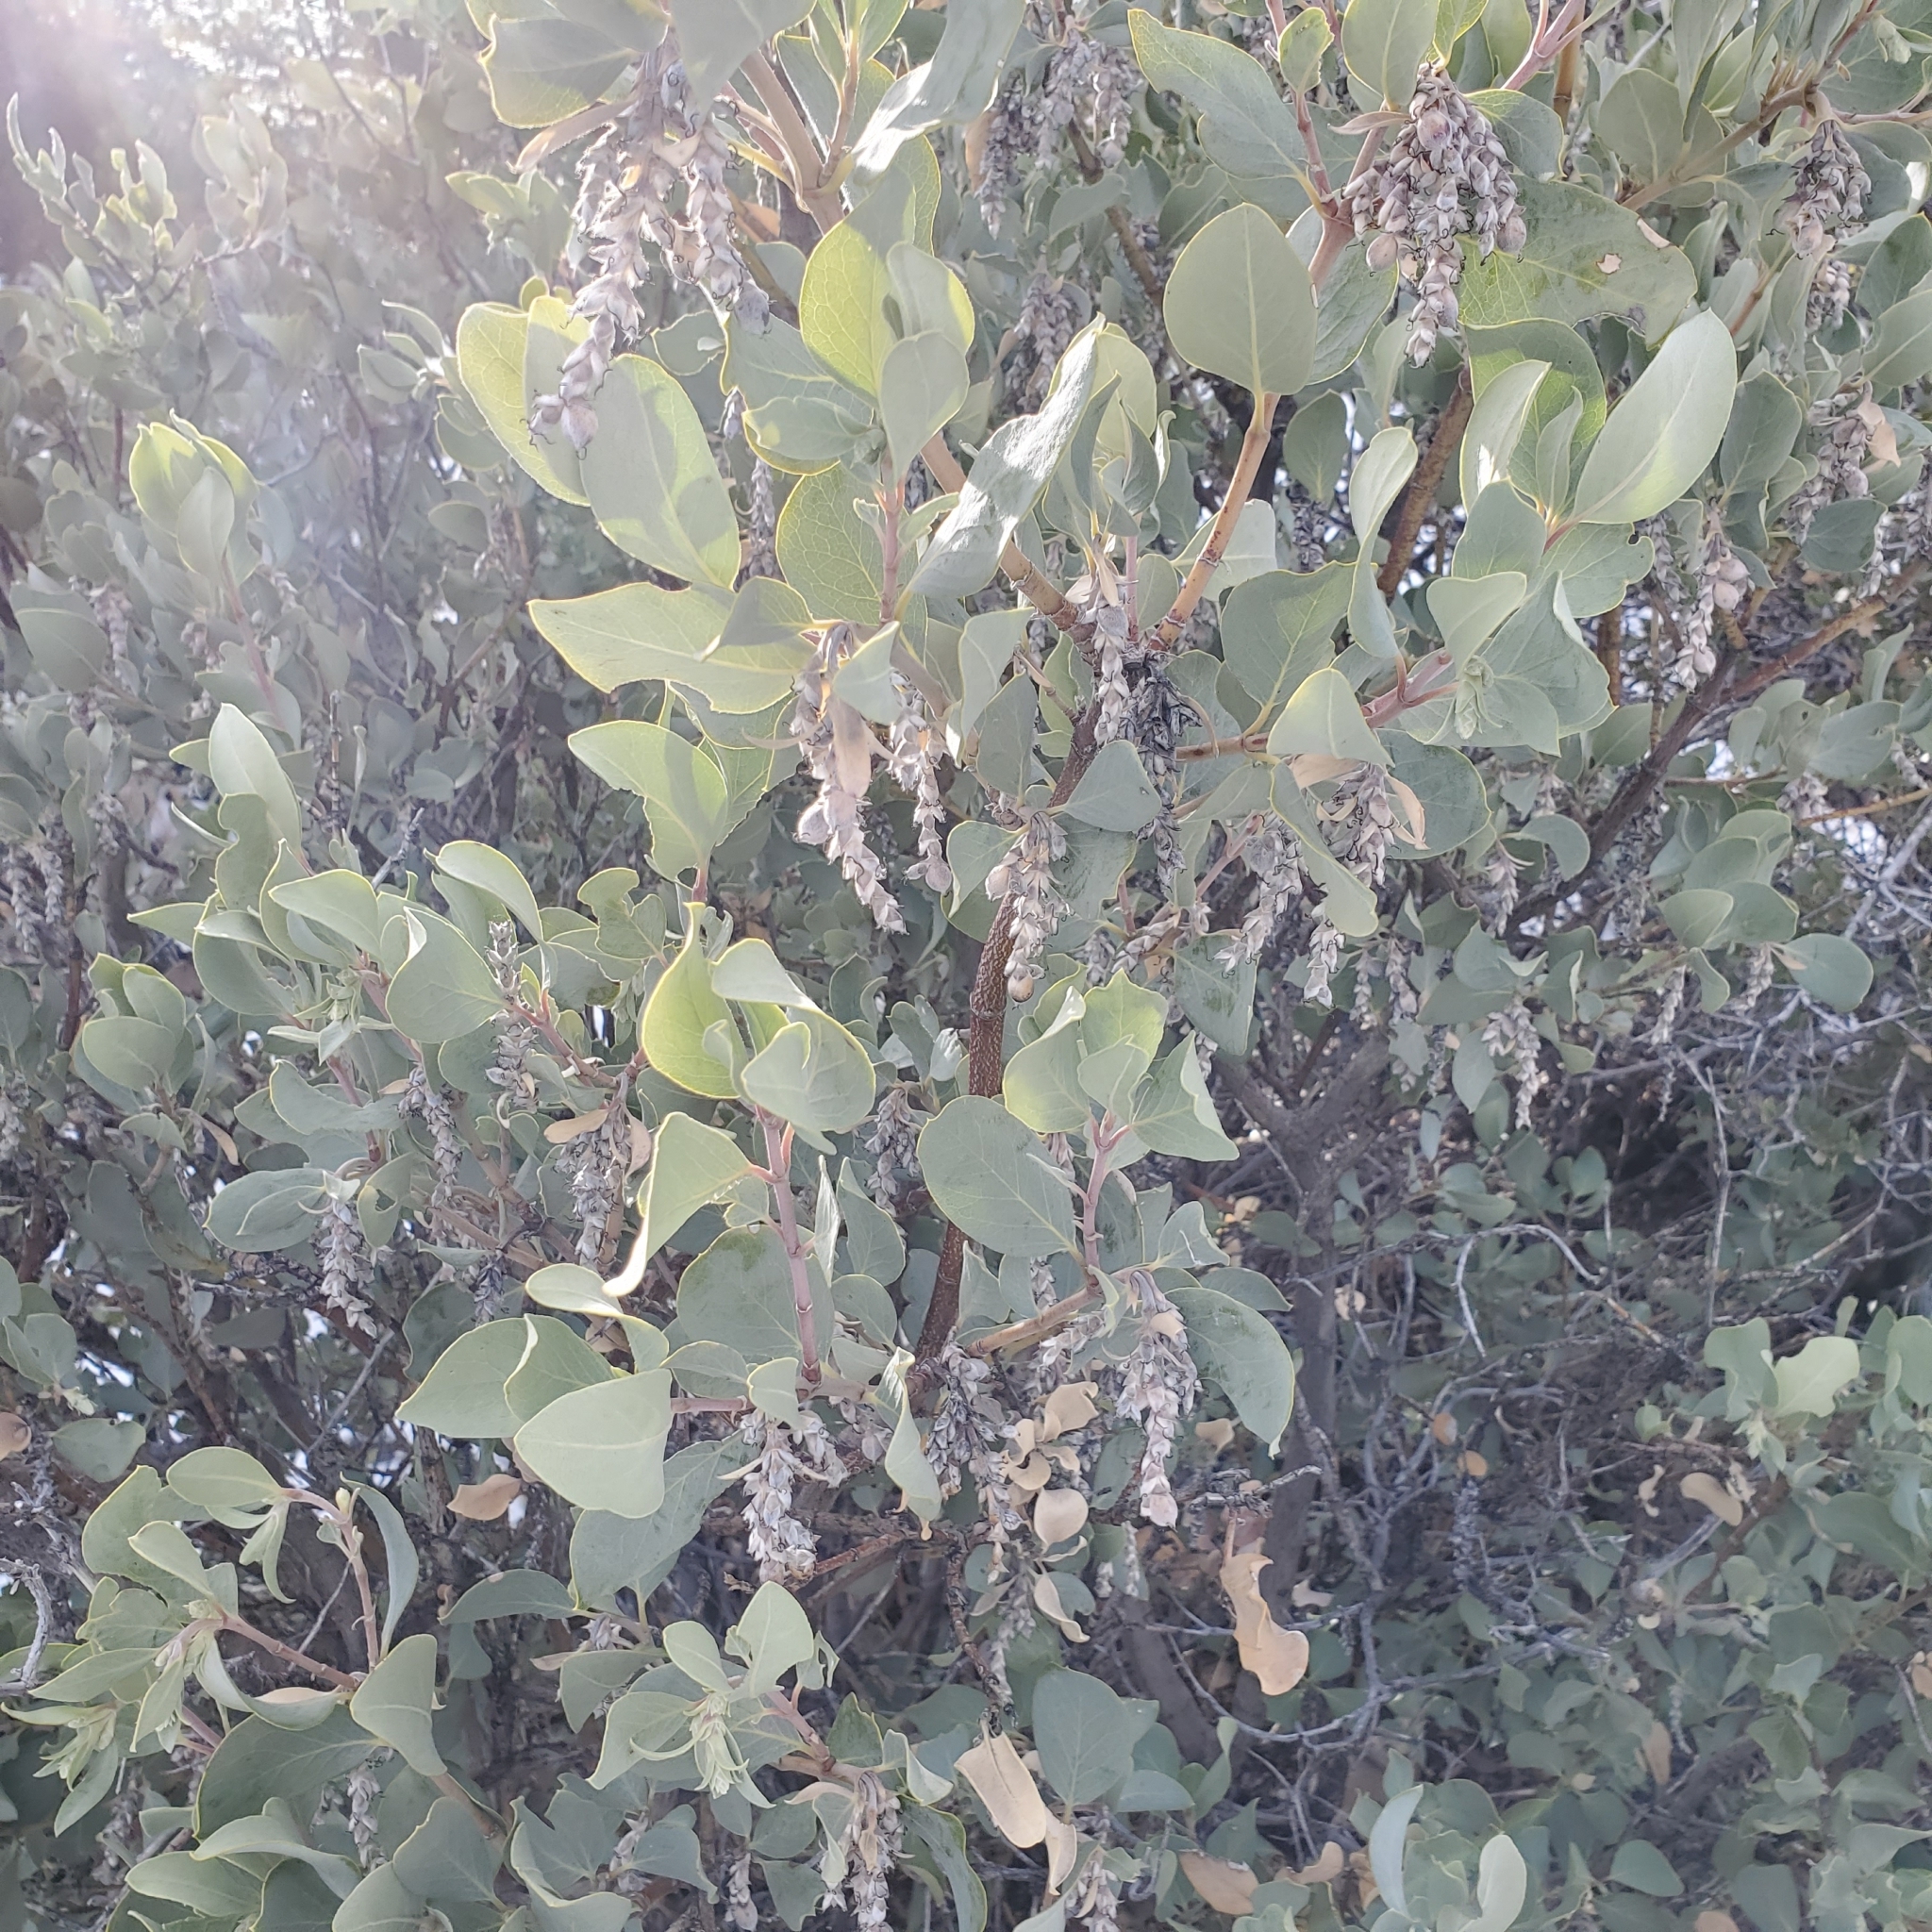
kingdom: Plantae
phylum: Tracheophyta
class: Magnoliopsida
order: Garryales
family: Garryaceae
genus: Garrya
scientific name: Garrya flavescens
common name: Ashy silk-tassel
